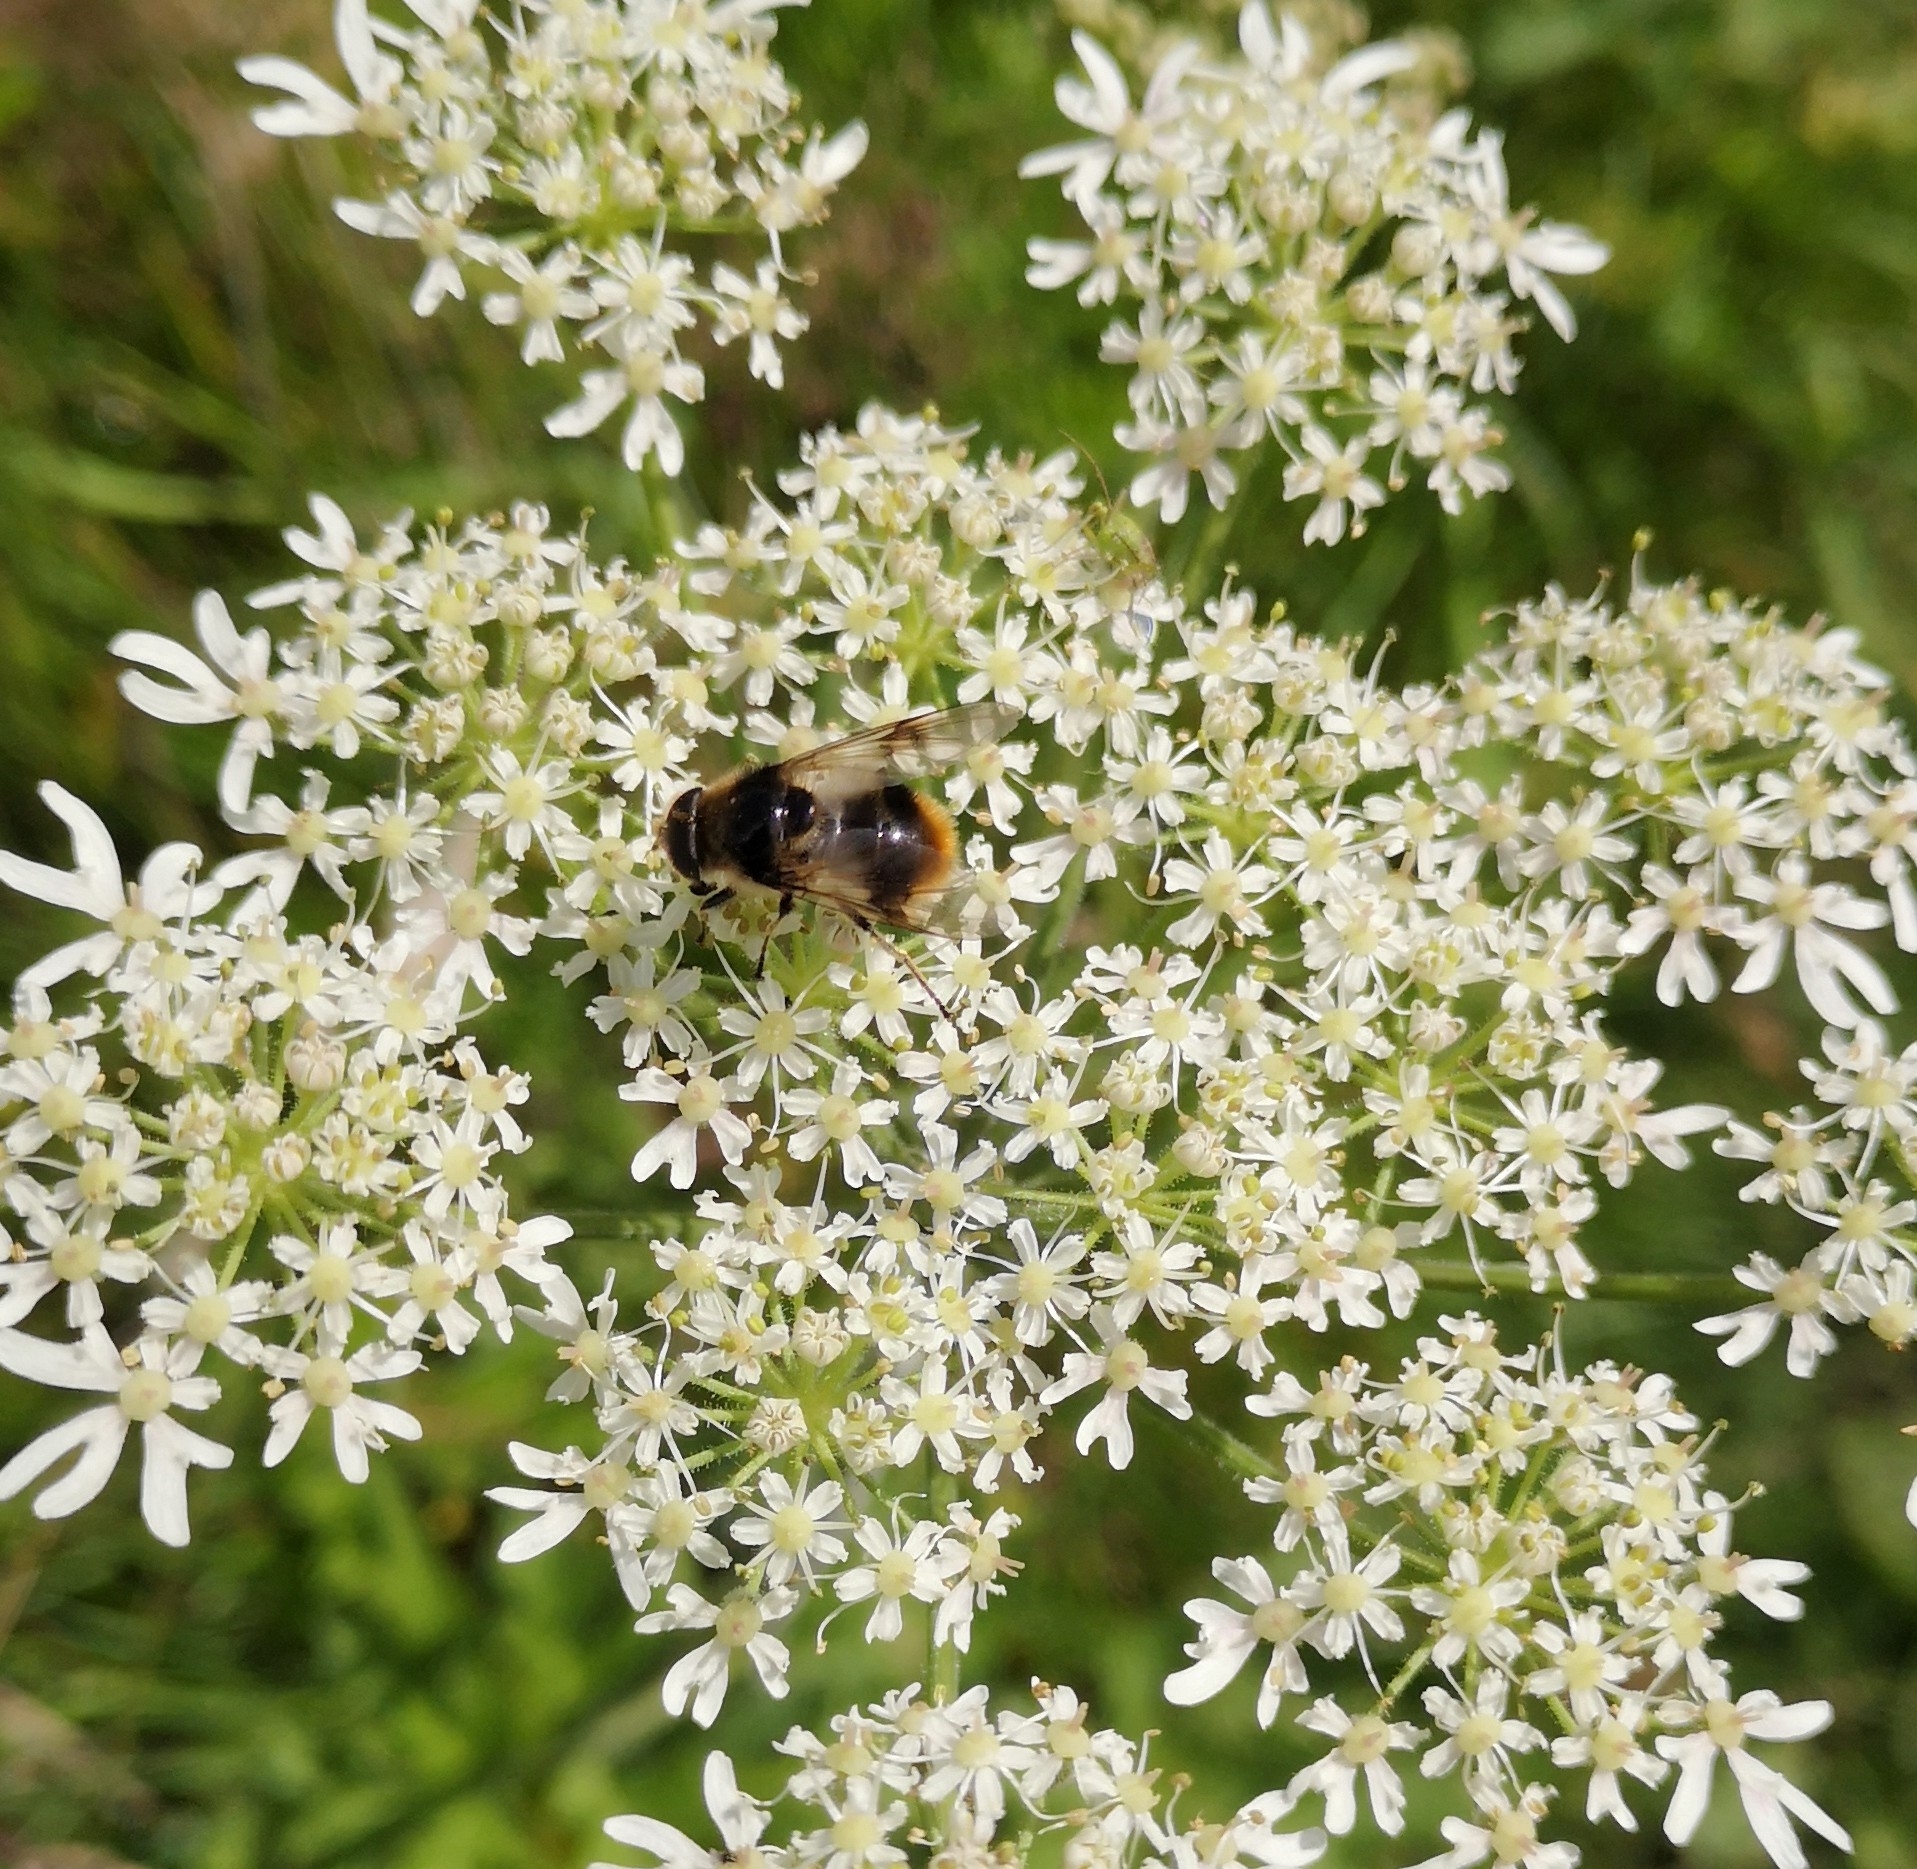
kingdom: Animalia
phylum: Arthropoda
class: Insecta
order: Diptera
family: Syrphidae
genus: Cheilosia
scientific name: Cheilosia illustrata
